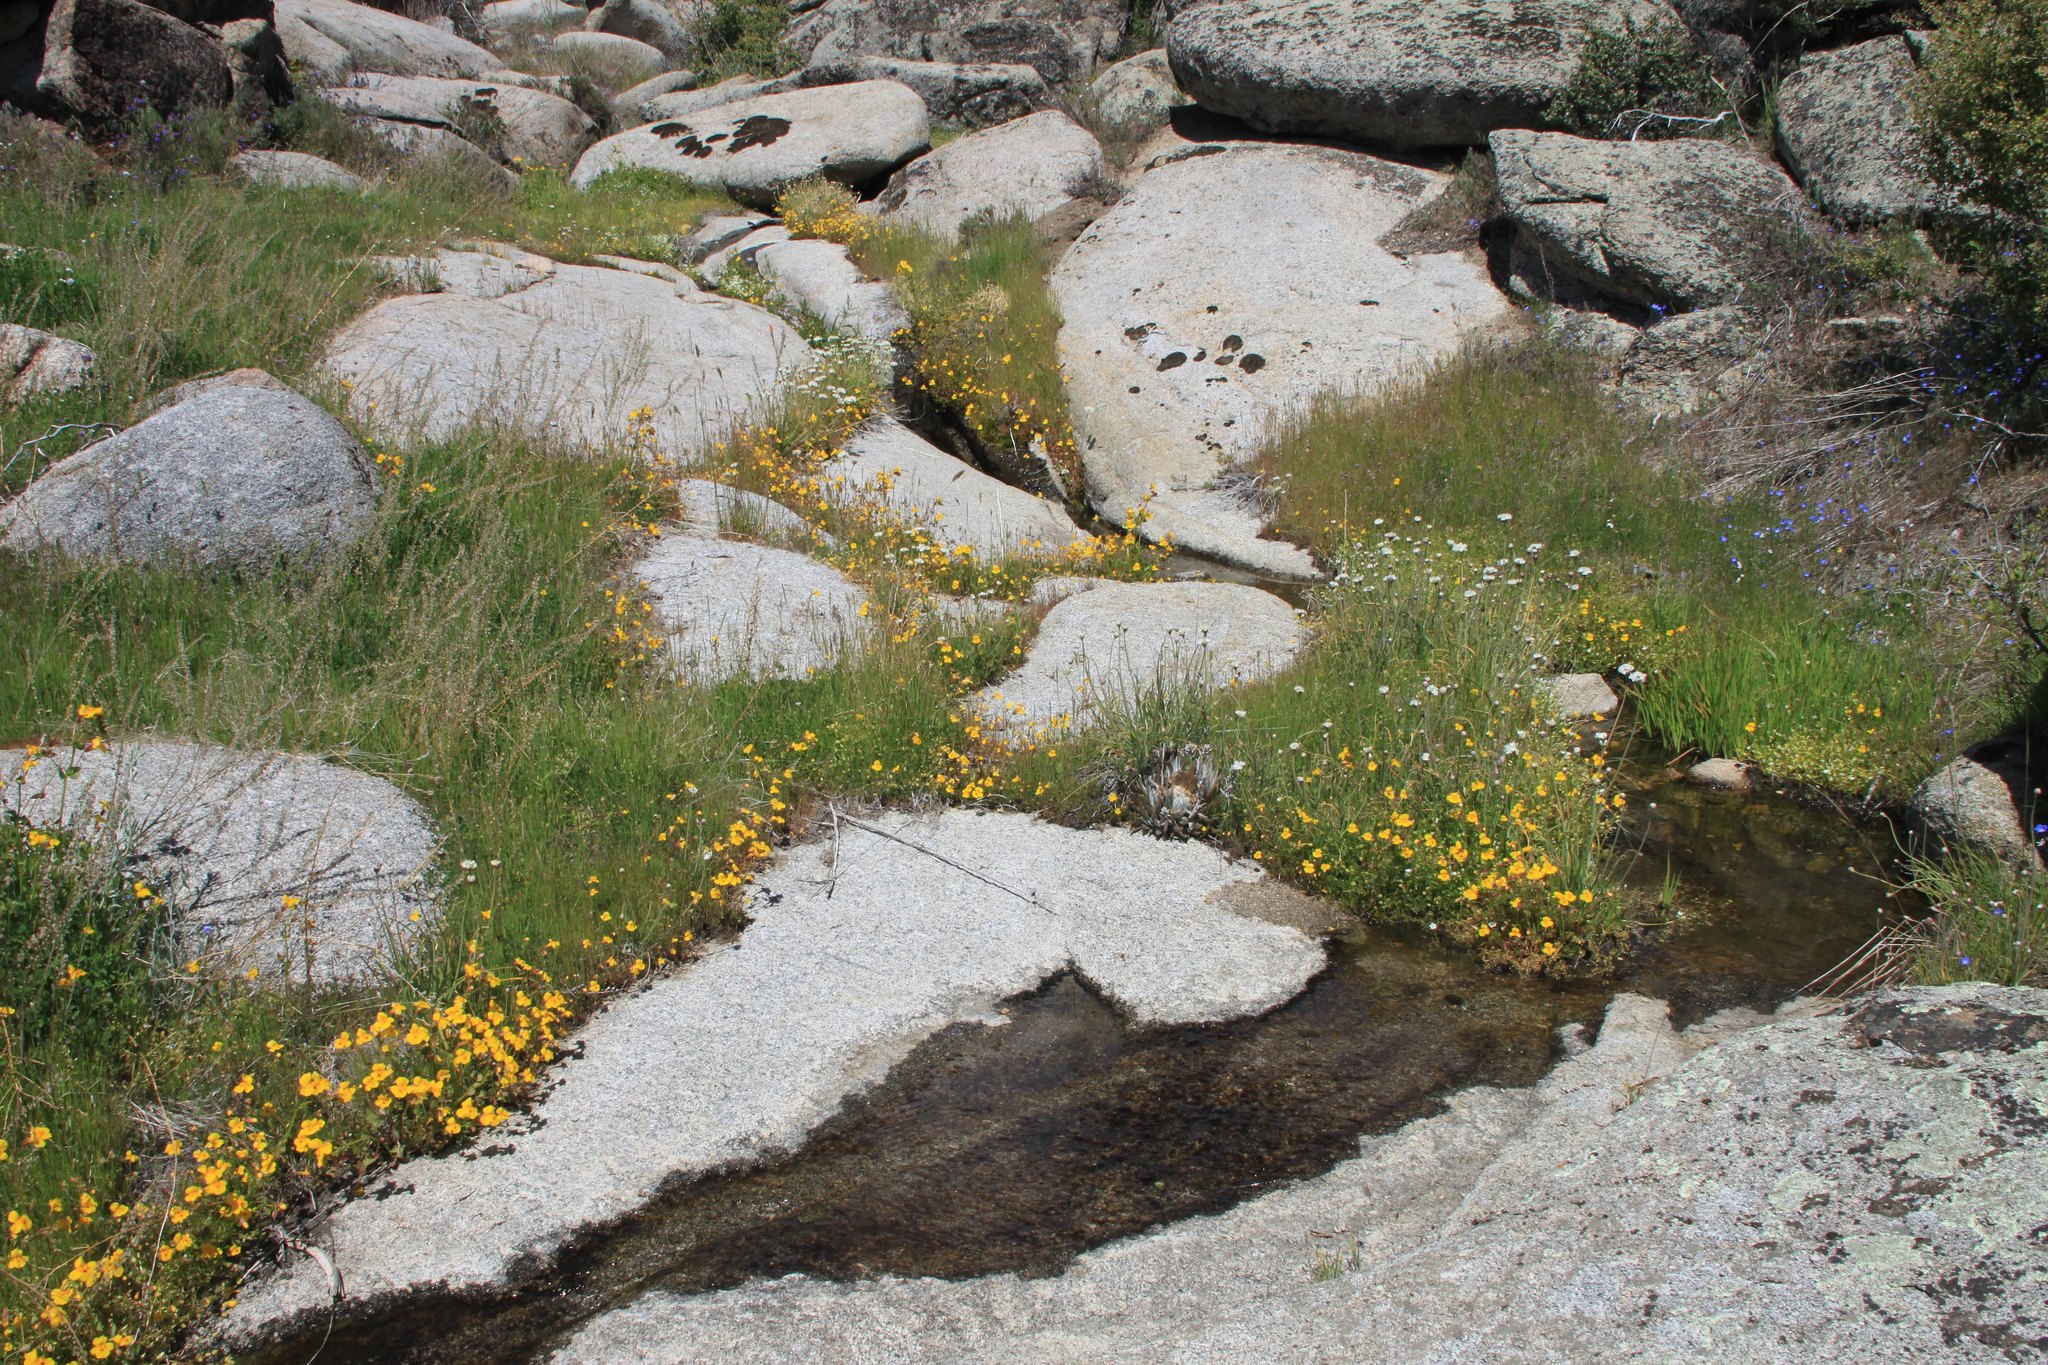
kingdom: Plantae
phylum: Tracheophyta
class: Magnoliopsida
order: Lamiales
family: Orobanchaceae
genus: Castilleja
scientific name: Castilleja attenuata
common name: Valley tassels
